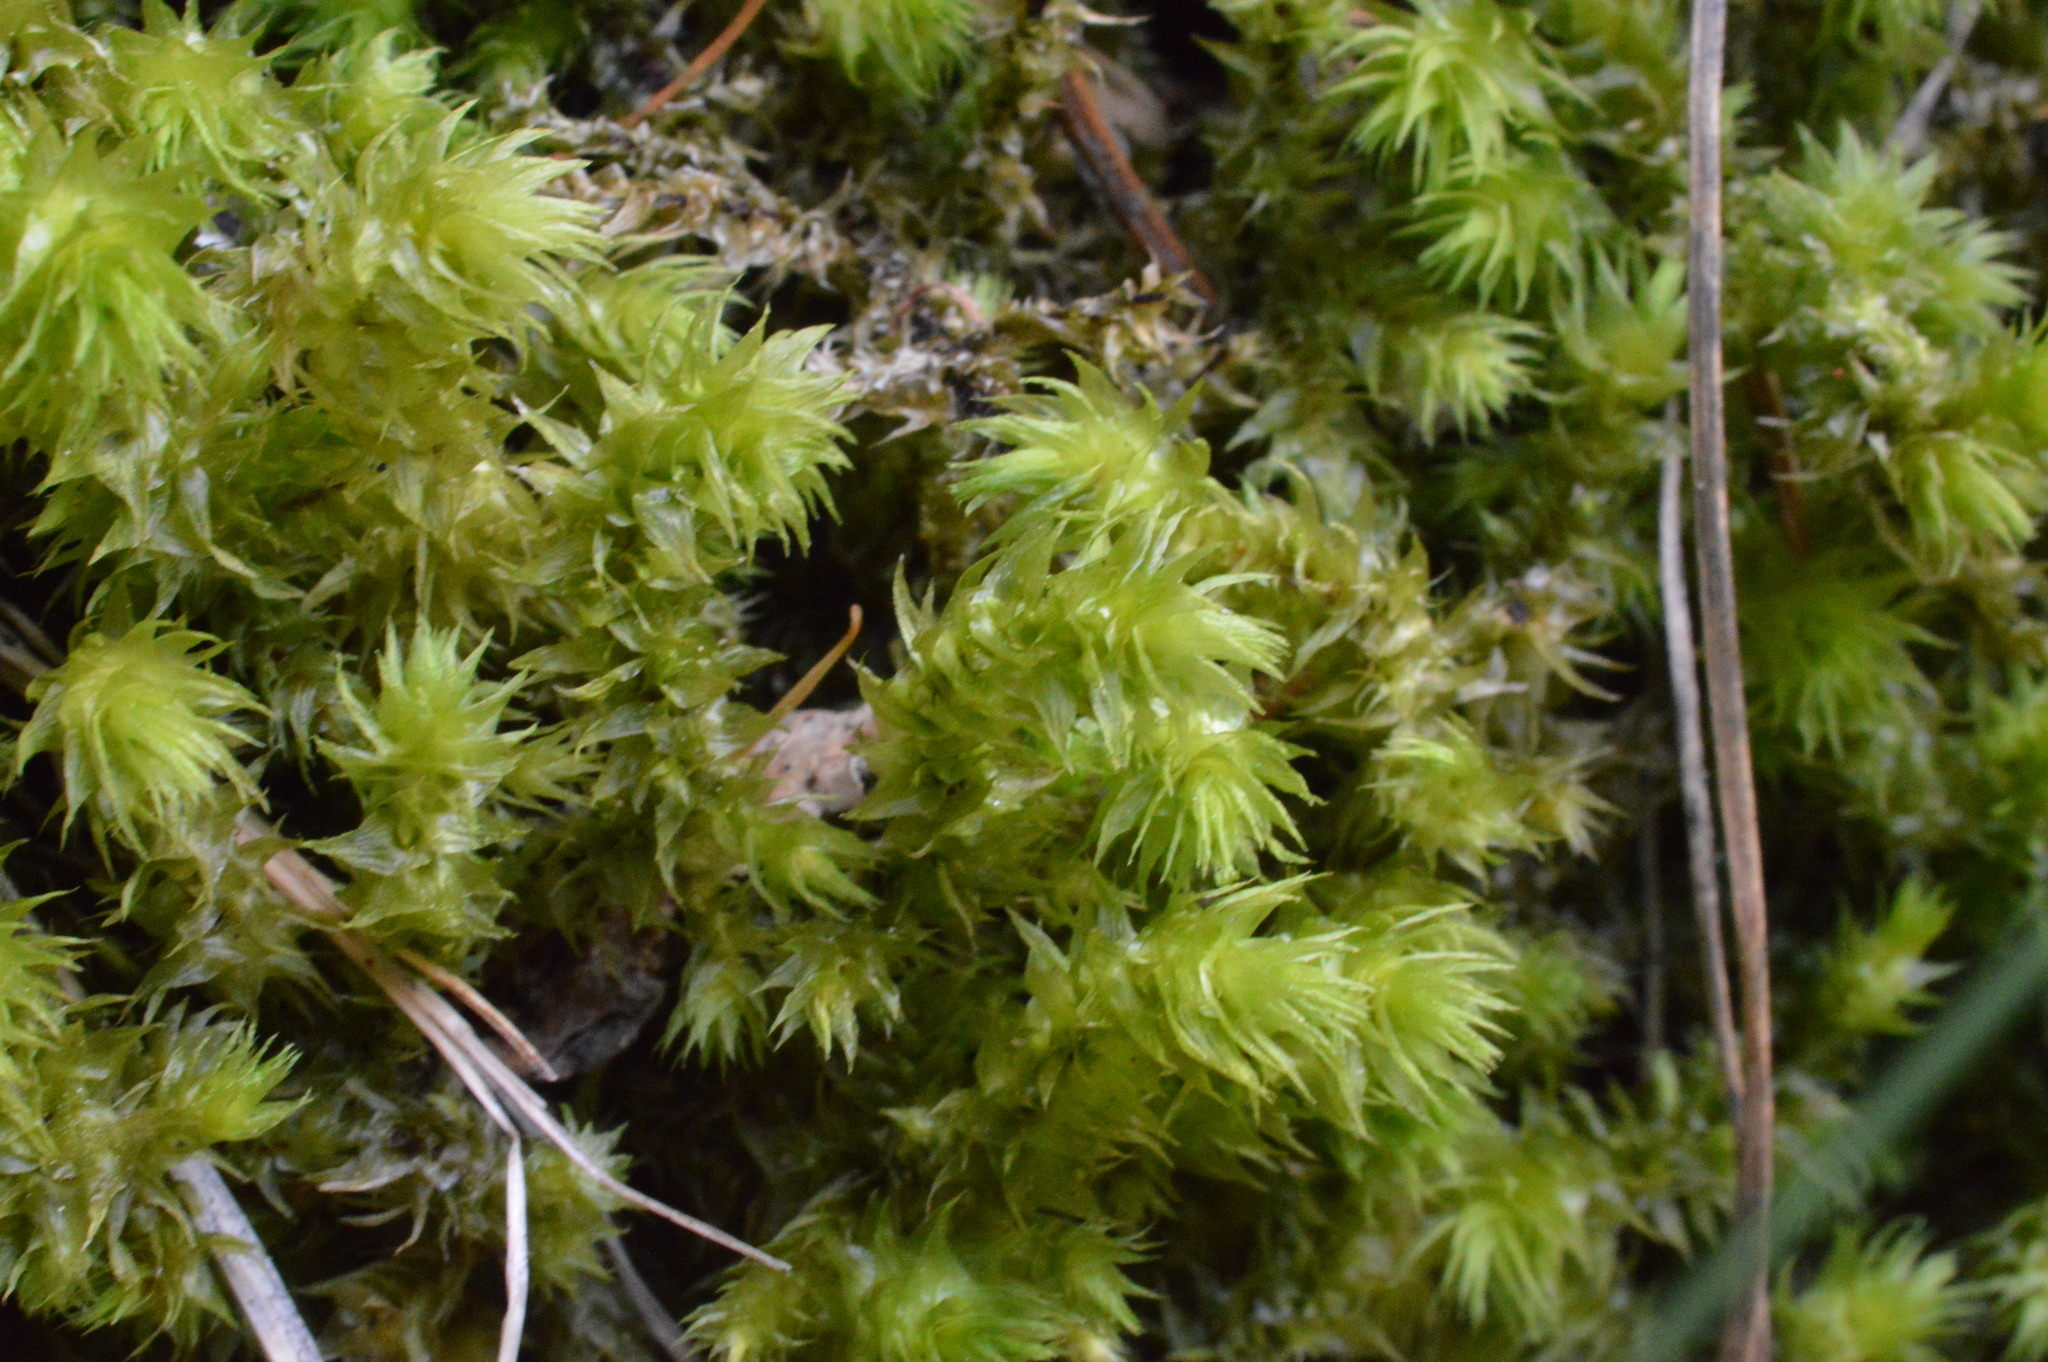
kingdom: Plantae
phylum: Bryophyta
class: Bryopsida
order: Hypnales
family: Hylocomiaceae
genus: Hylocomiadelphus
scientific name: Hylocomiadelphus triquetrus
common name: Rough goose neck moss
